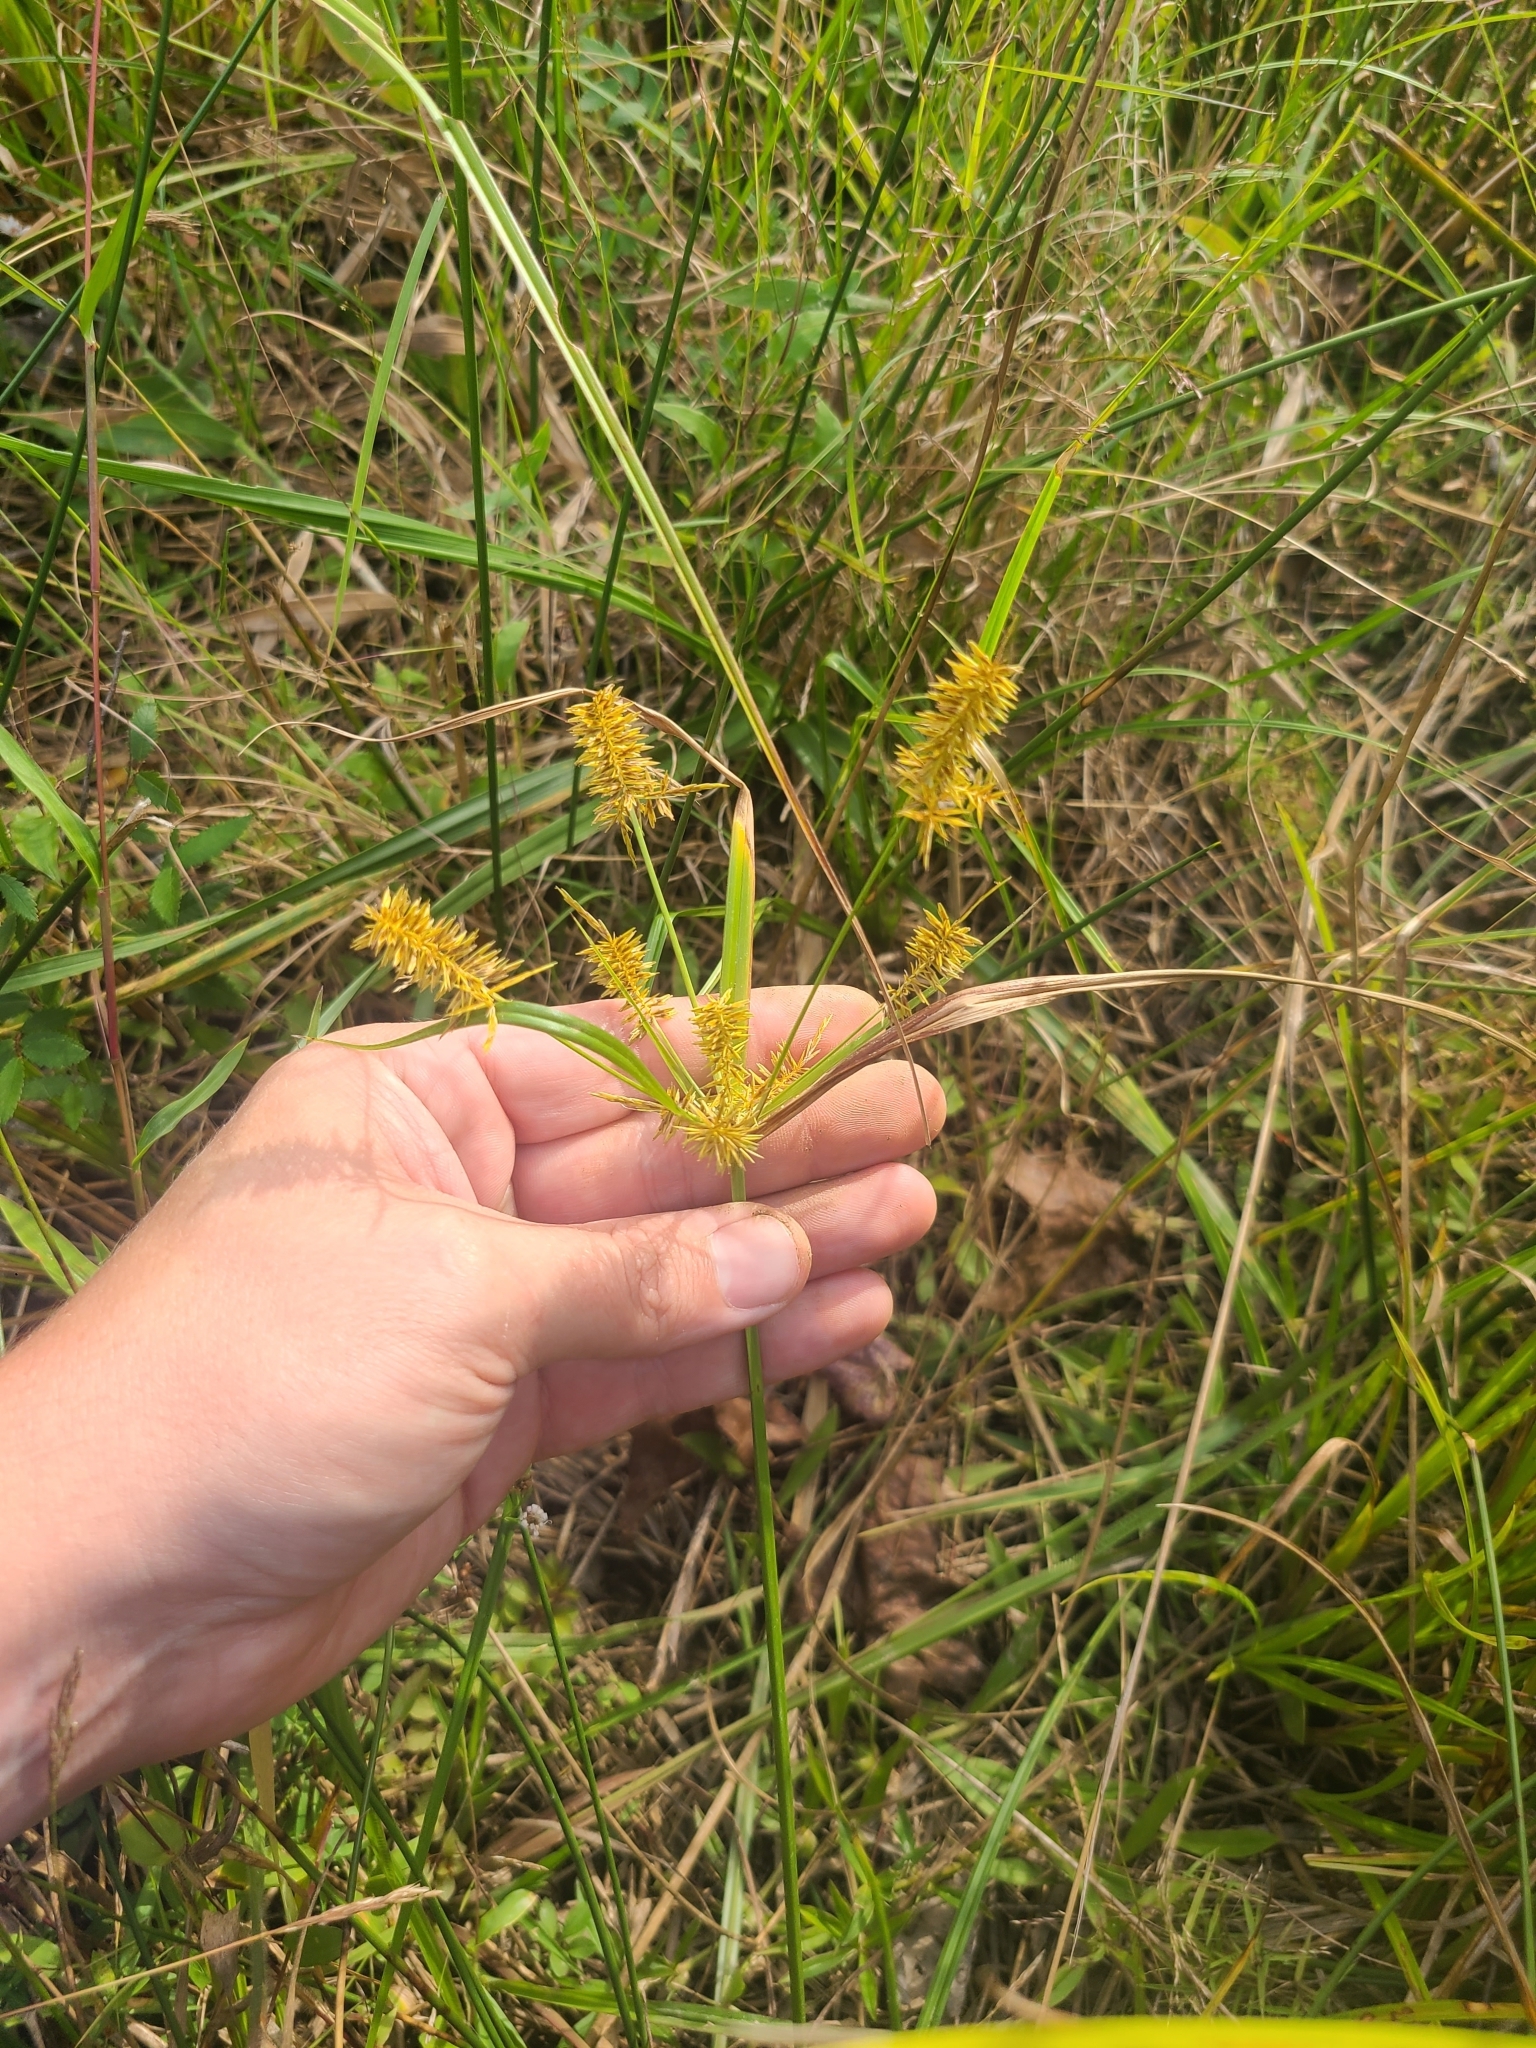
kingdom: Plantae
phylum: Tracheophyta
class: Liliopsida
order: Poales
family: Cyperaceae
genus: Cyperus
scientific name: Cyperus strigosus
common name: False nutsedge
